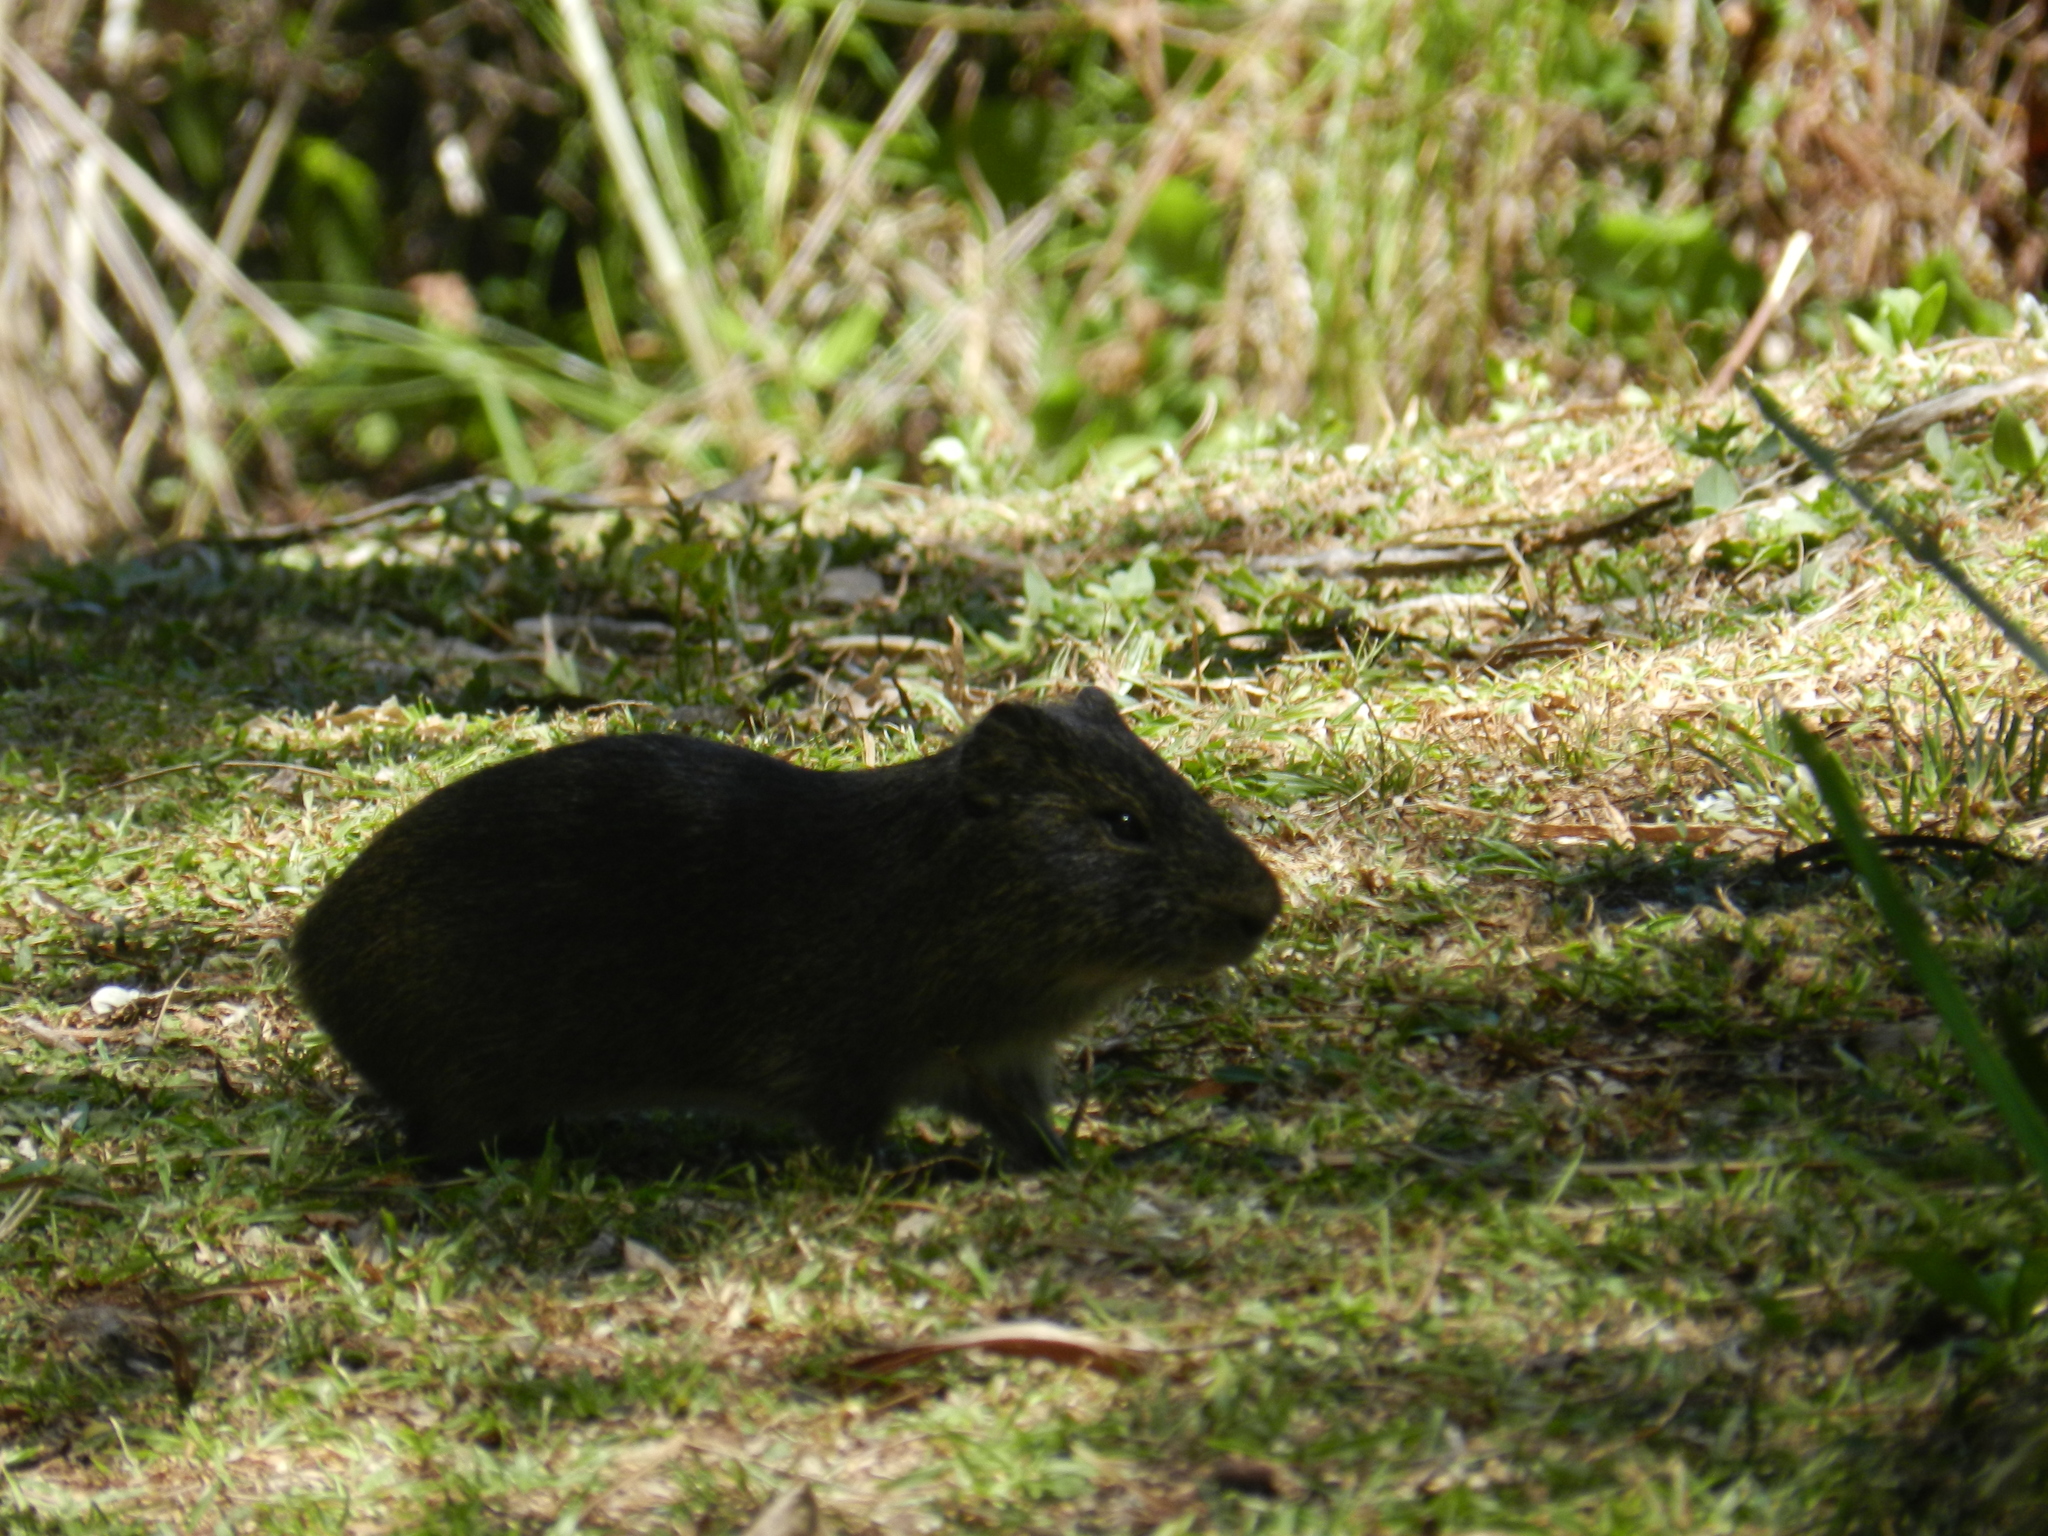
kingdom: Animalia
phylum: Chordata
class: Mammalia
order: Rodentia
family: Caviidae
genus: Cavia
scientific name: Cavia aperea
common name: Brazilian guinea pig
